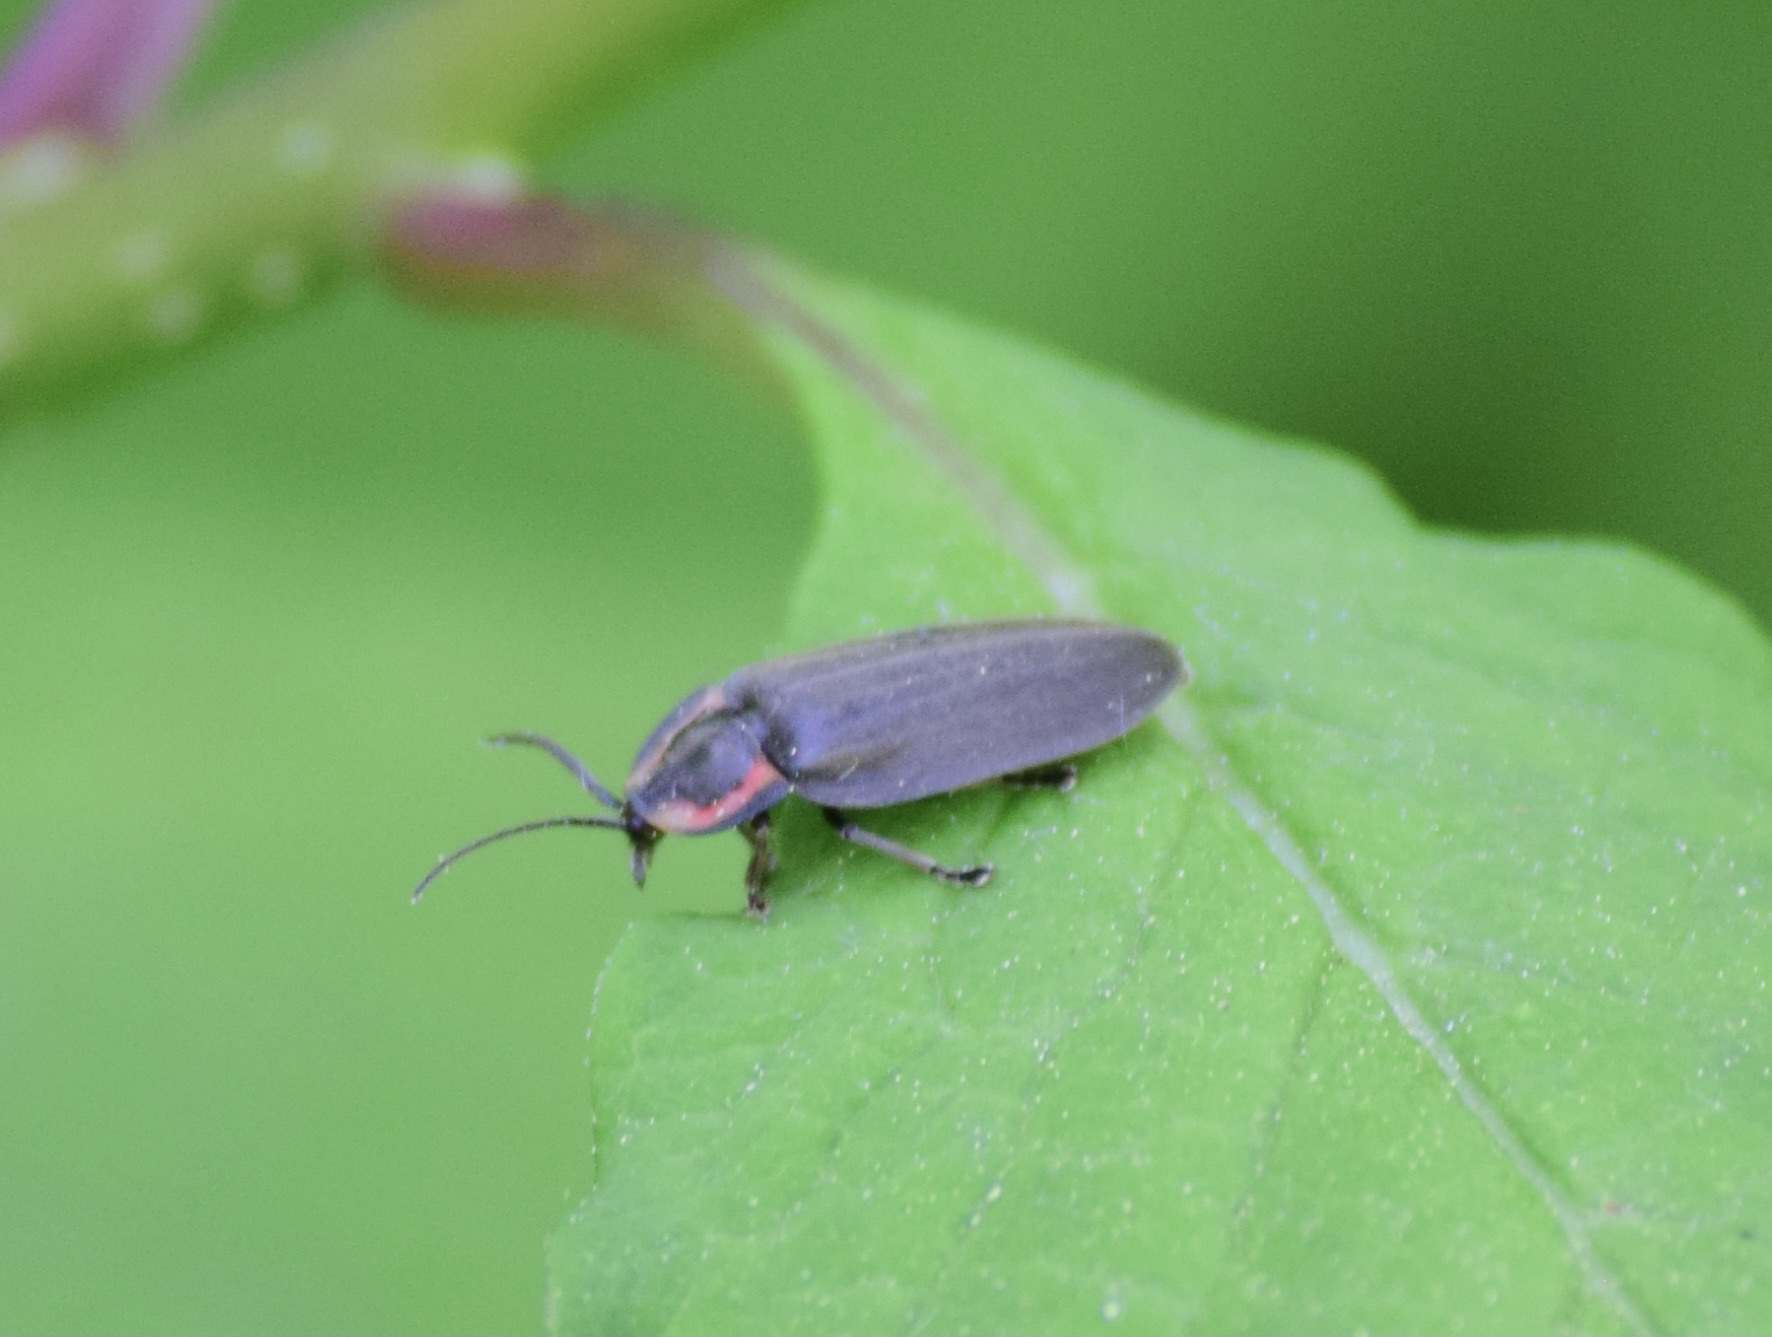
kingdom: Animalia
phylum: Arthropoda
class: Insecta
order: Coleoptera
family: Lampyridae
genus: Photinus
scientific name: Photinus corrusca
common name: Winter firefly
